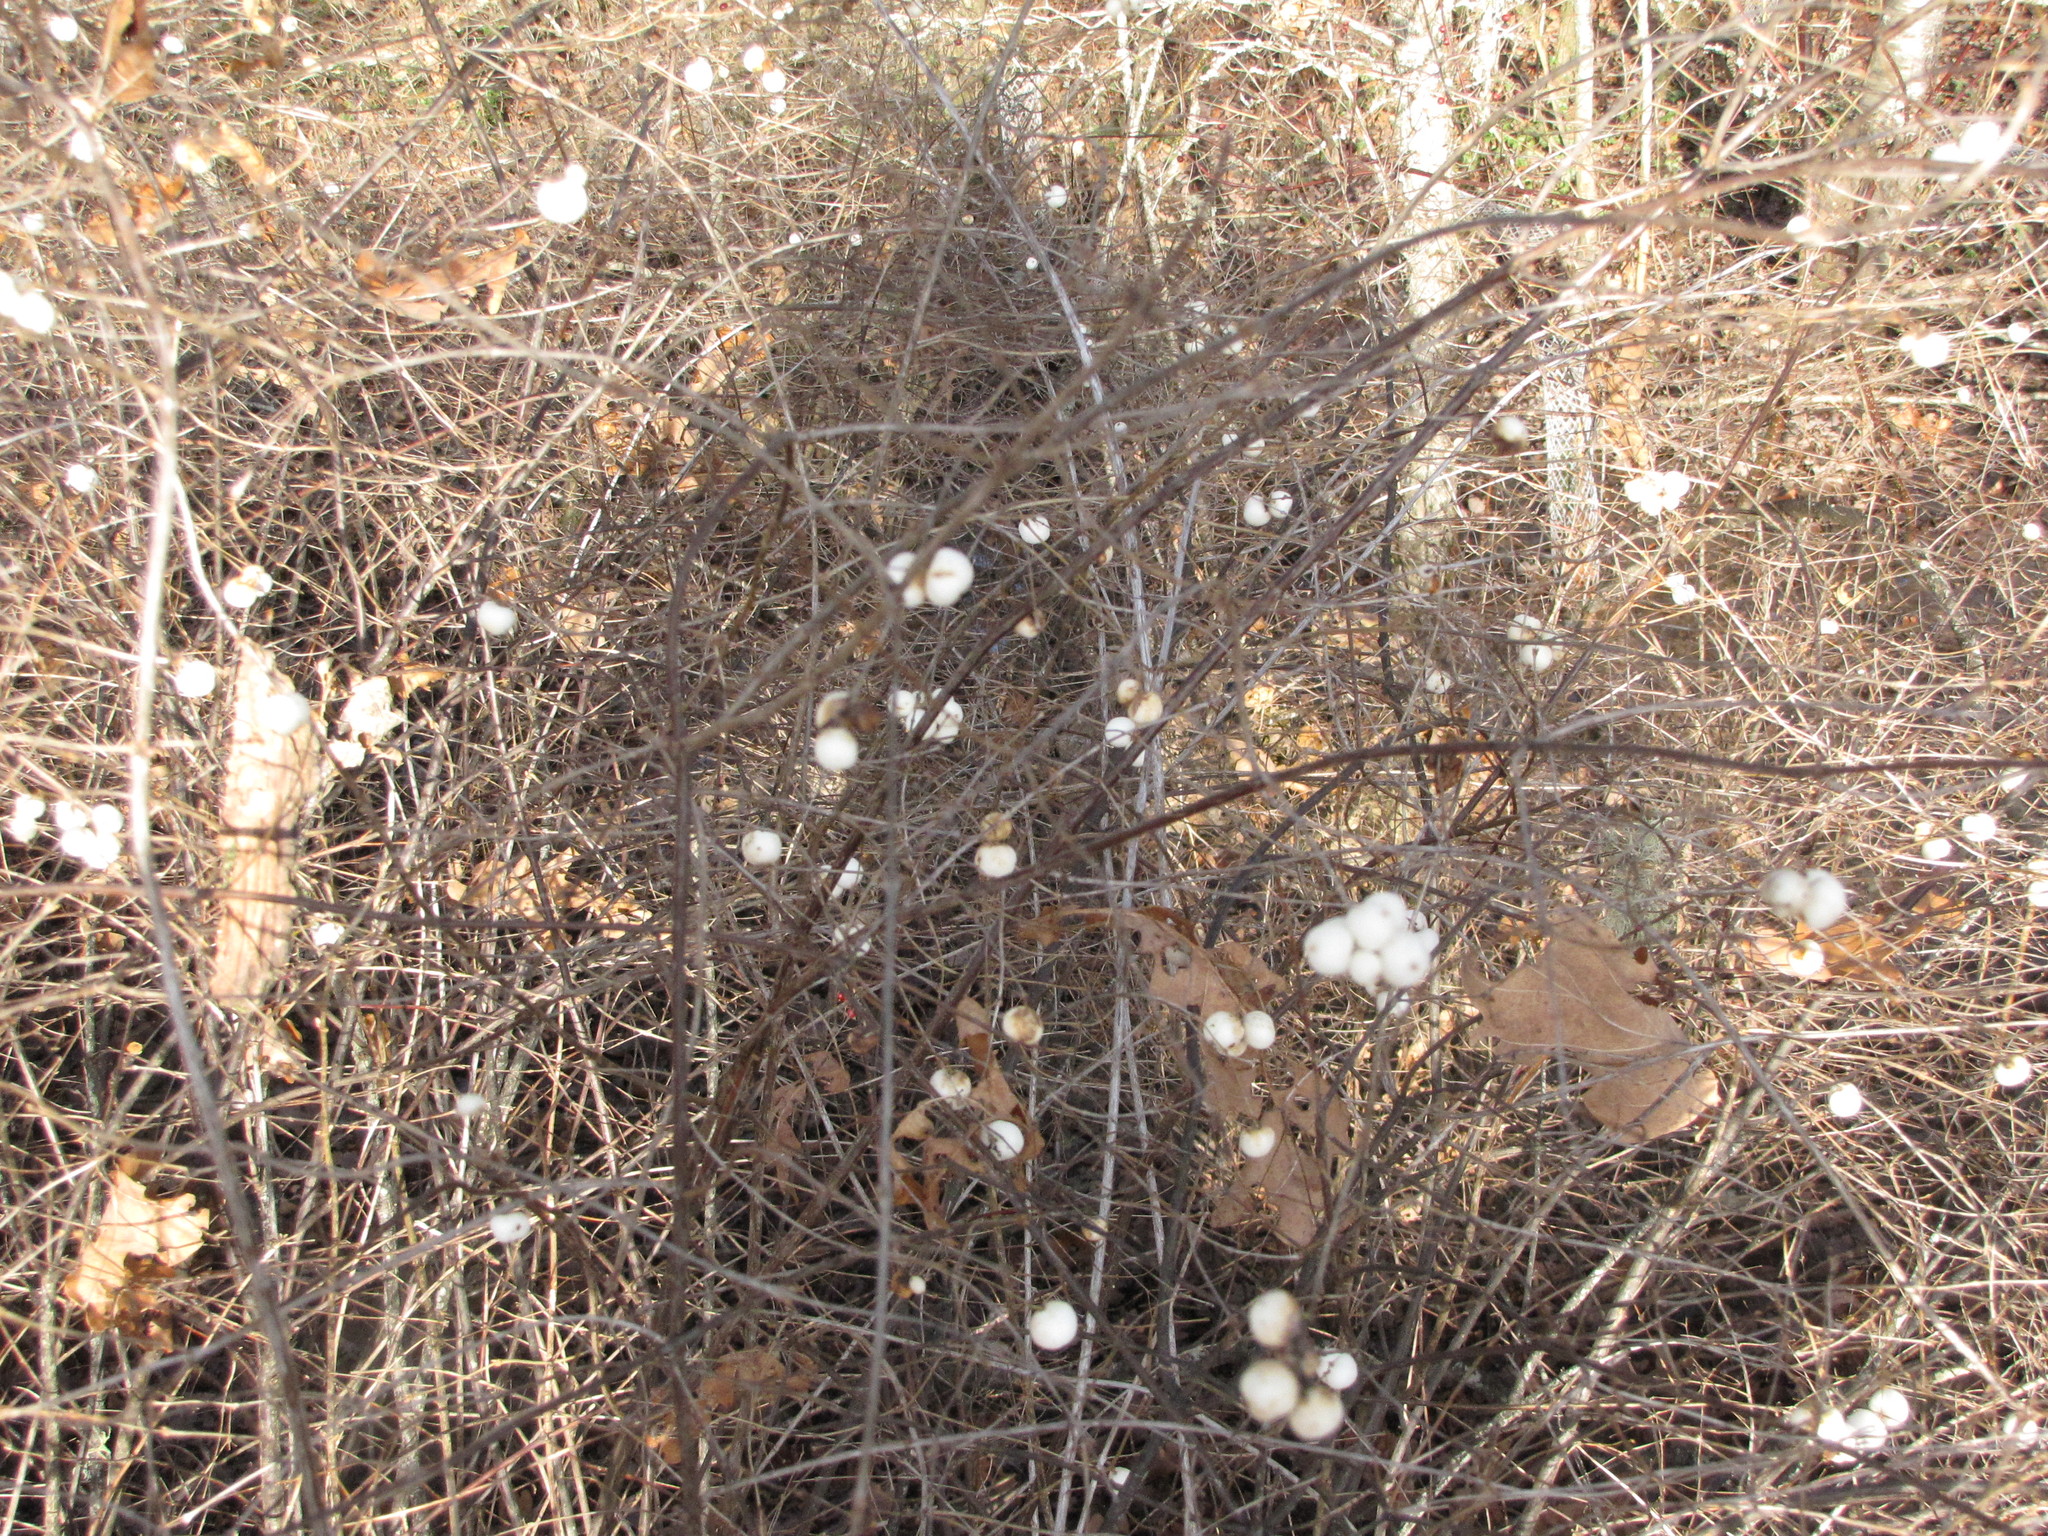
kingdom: Plantae
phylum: Tracheophyta
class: Magnoliopsida
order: Dipsacales
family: Caprifoliaceae
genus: Symphoricarpos
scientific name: Symphoricarpos albus
